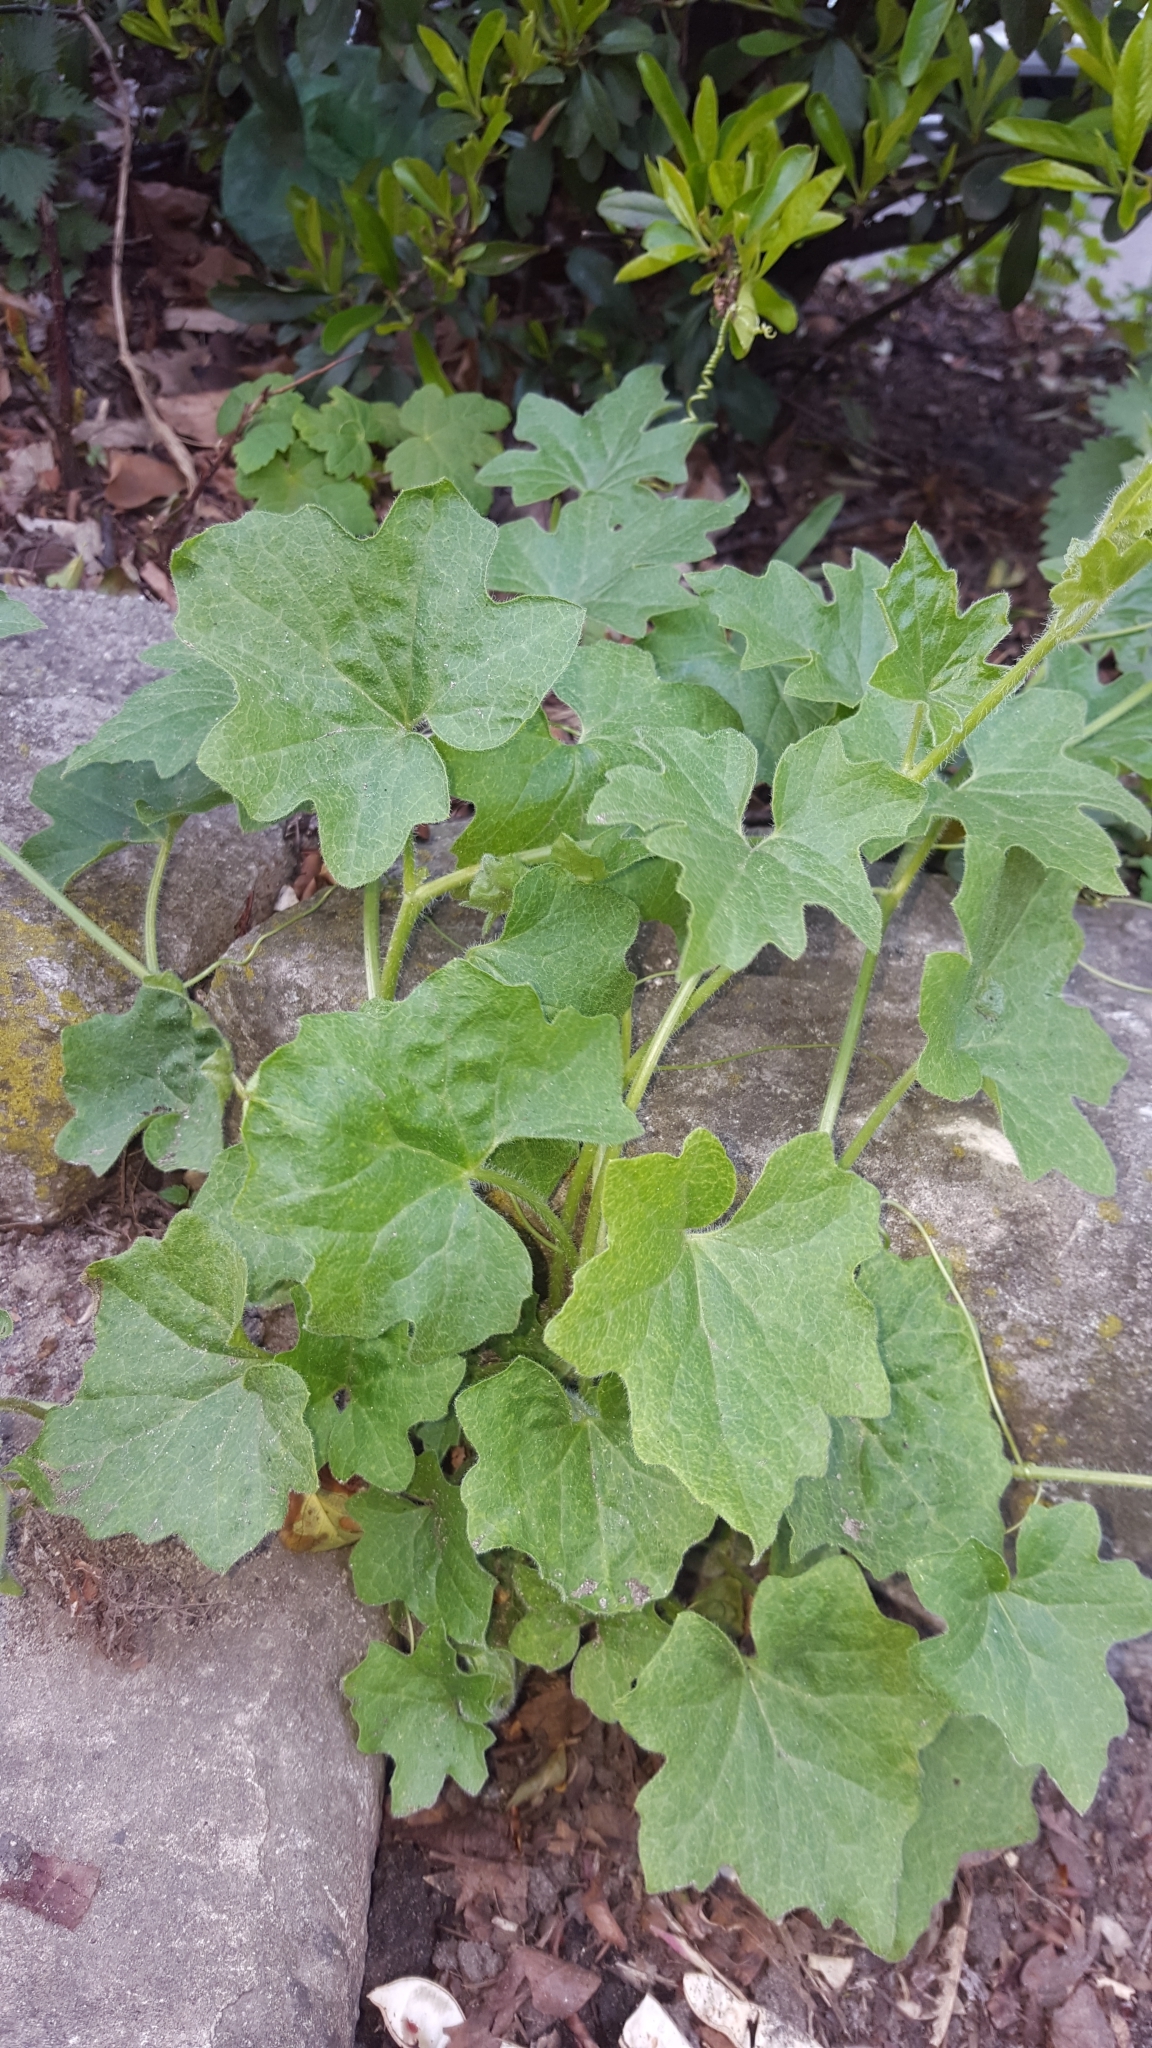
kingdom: Plantae
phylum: Tracheophyta
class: Magnoliopsida
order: Cucurbitales
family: Cucurbitaceae
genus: Bryonia
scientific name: Bryonia cretica
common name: Cretan bryony
